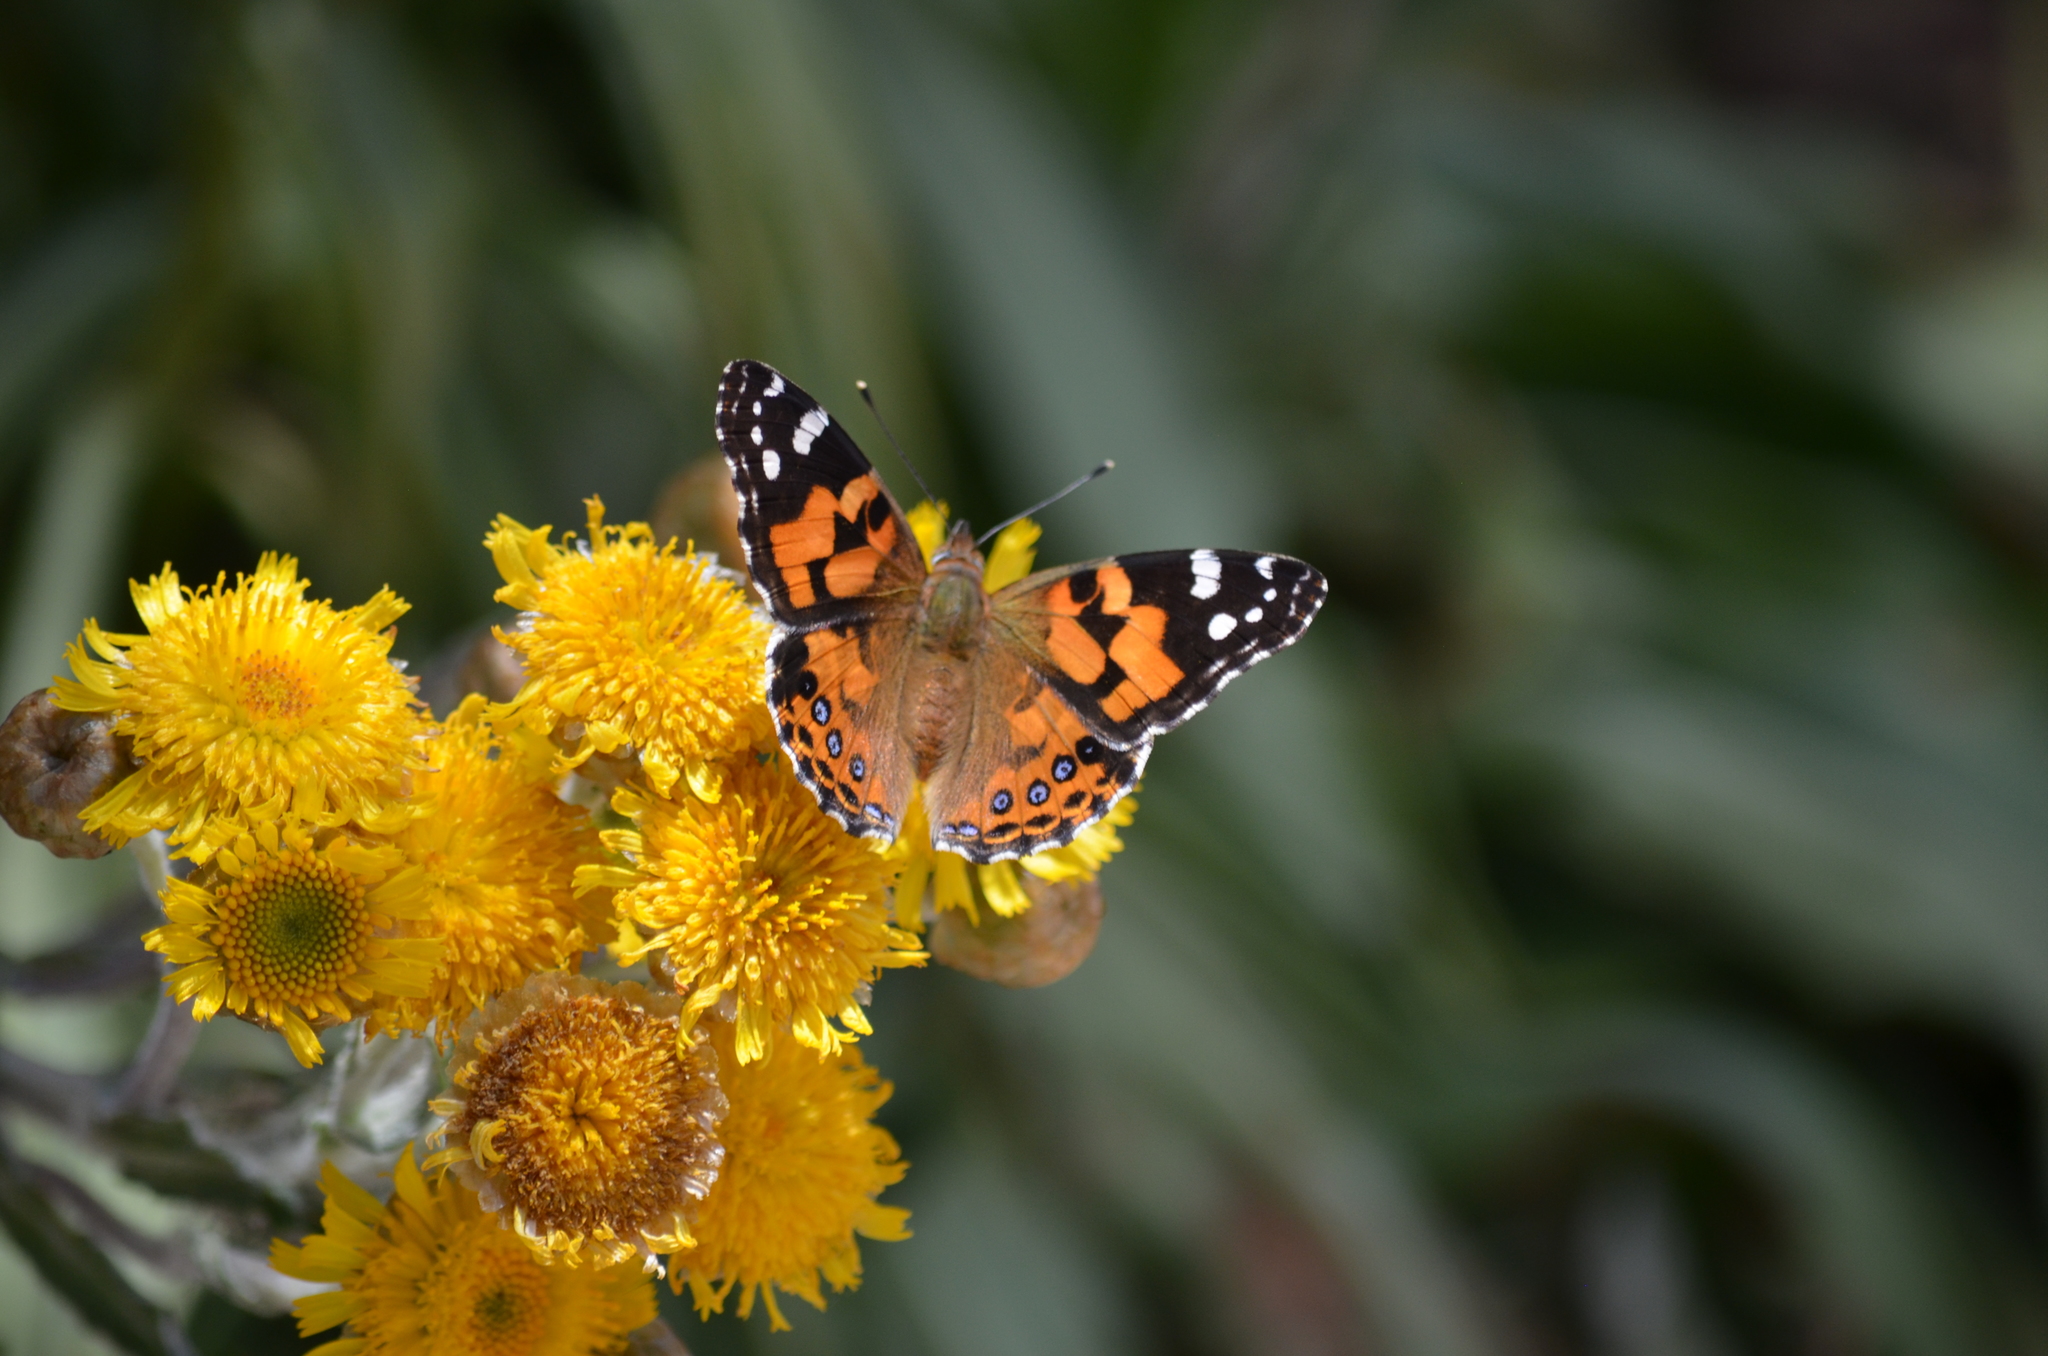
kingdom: Animalia
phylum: Arthropoda
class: Insecta
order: Lepidoptera
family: Nymphalidae
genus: Vanessa
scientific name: Vanessa kershawi
